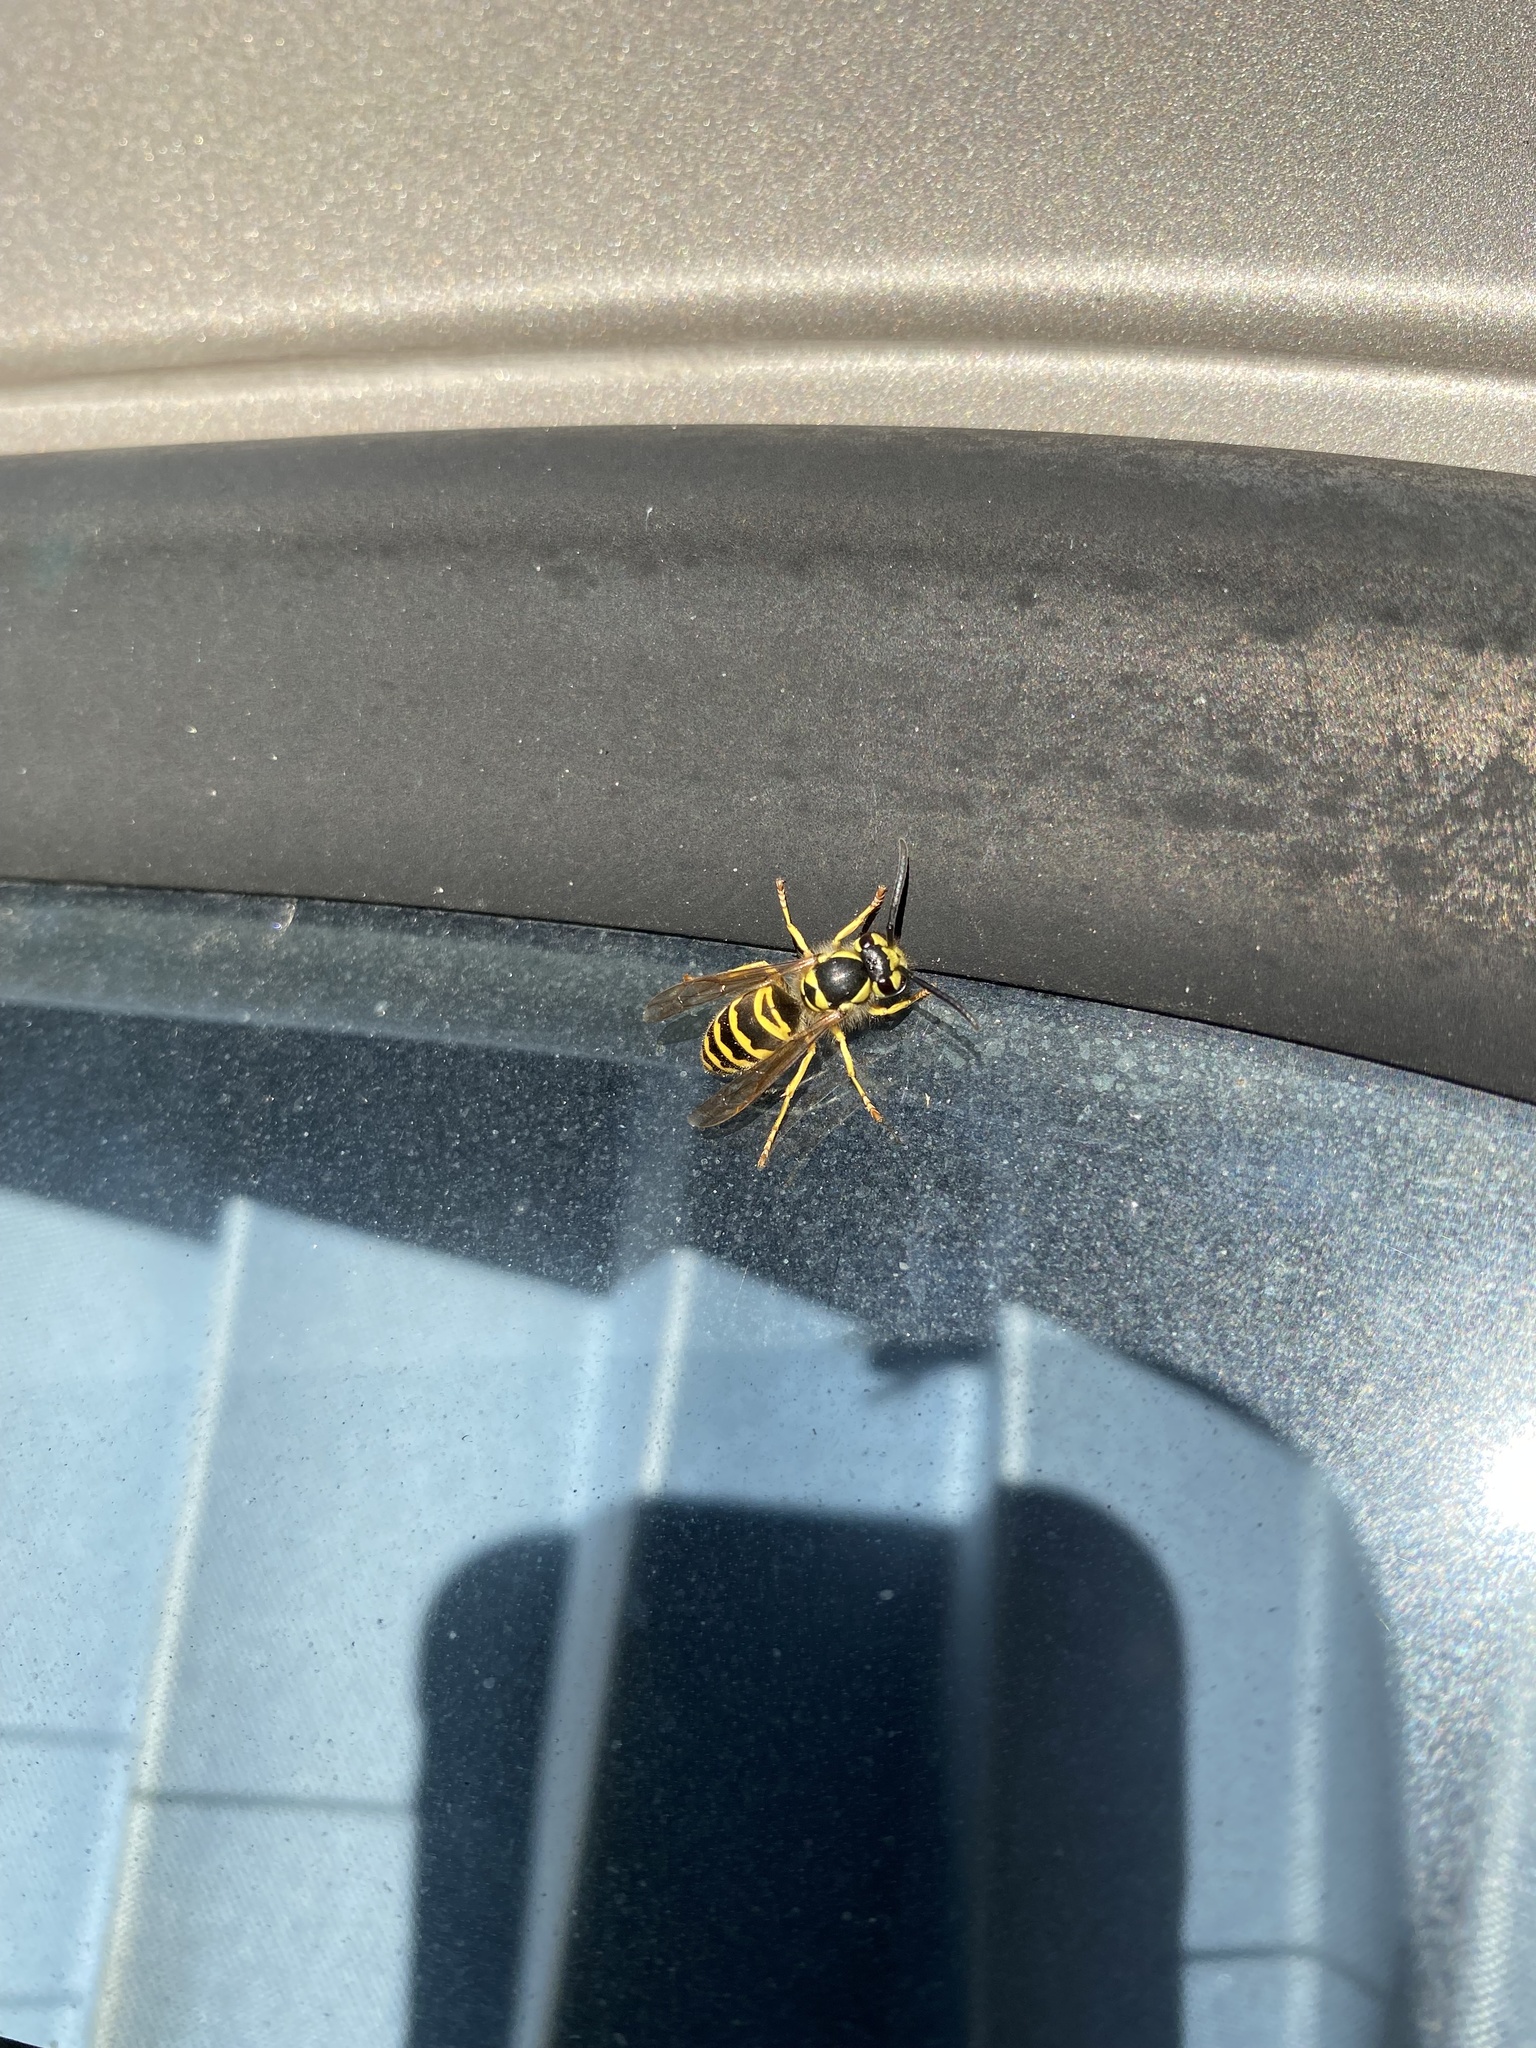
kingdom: Animalia
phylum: Arthropoda
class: Insecta
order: Hymenoptera
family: Vespidae
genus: Vespula
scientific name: Vespula maculifrons
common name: Eastern yellowjacket
